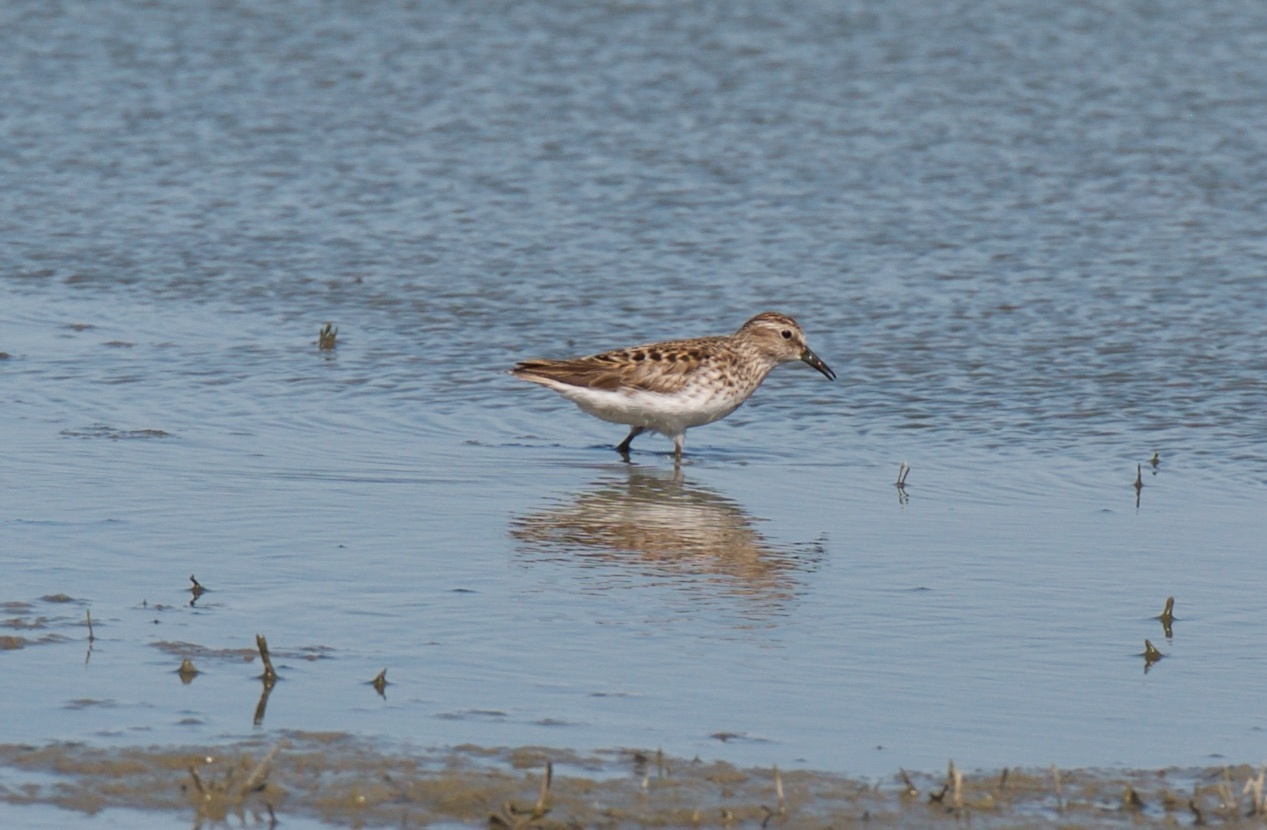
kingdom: Animalia
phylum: Chordata
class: Aves
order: Charadriiformes
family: Scolopacidae
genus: Calidris
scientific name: Calidris minutilla
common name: Least sandpiper
